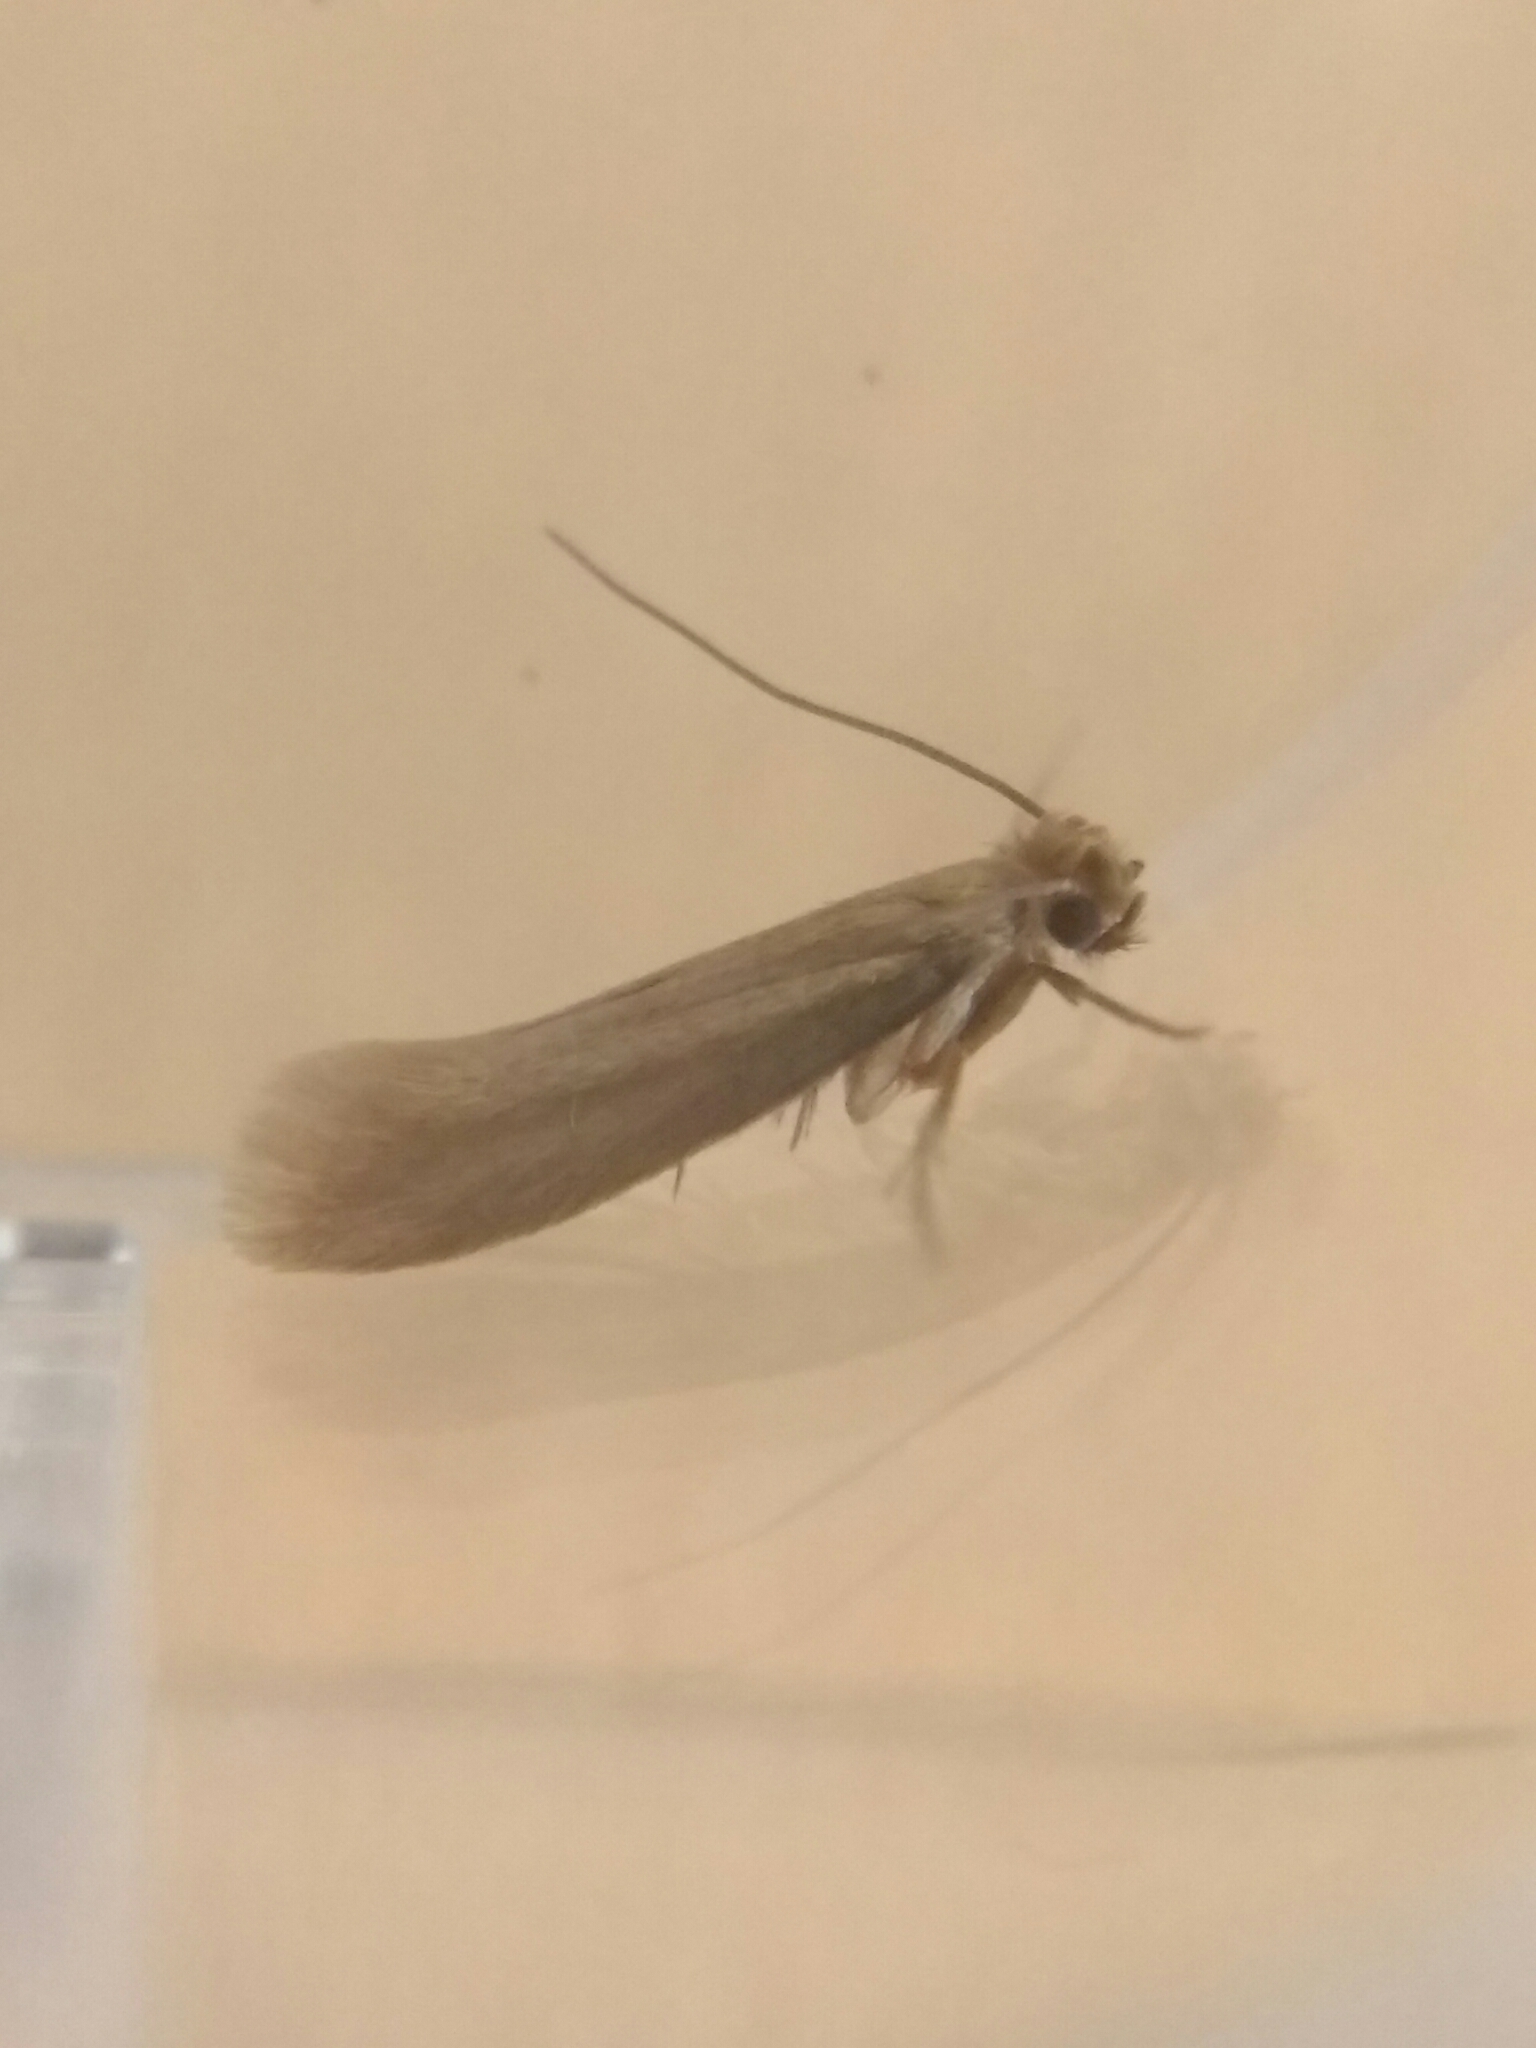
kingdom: Animalia
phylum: Arthropoda
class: Insecta
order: Lepidoptera
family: Tineidae
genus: Tineola
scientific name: Tineola bisselliella
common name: Webbing clothes moth
